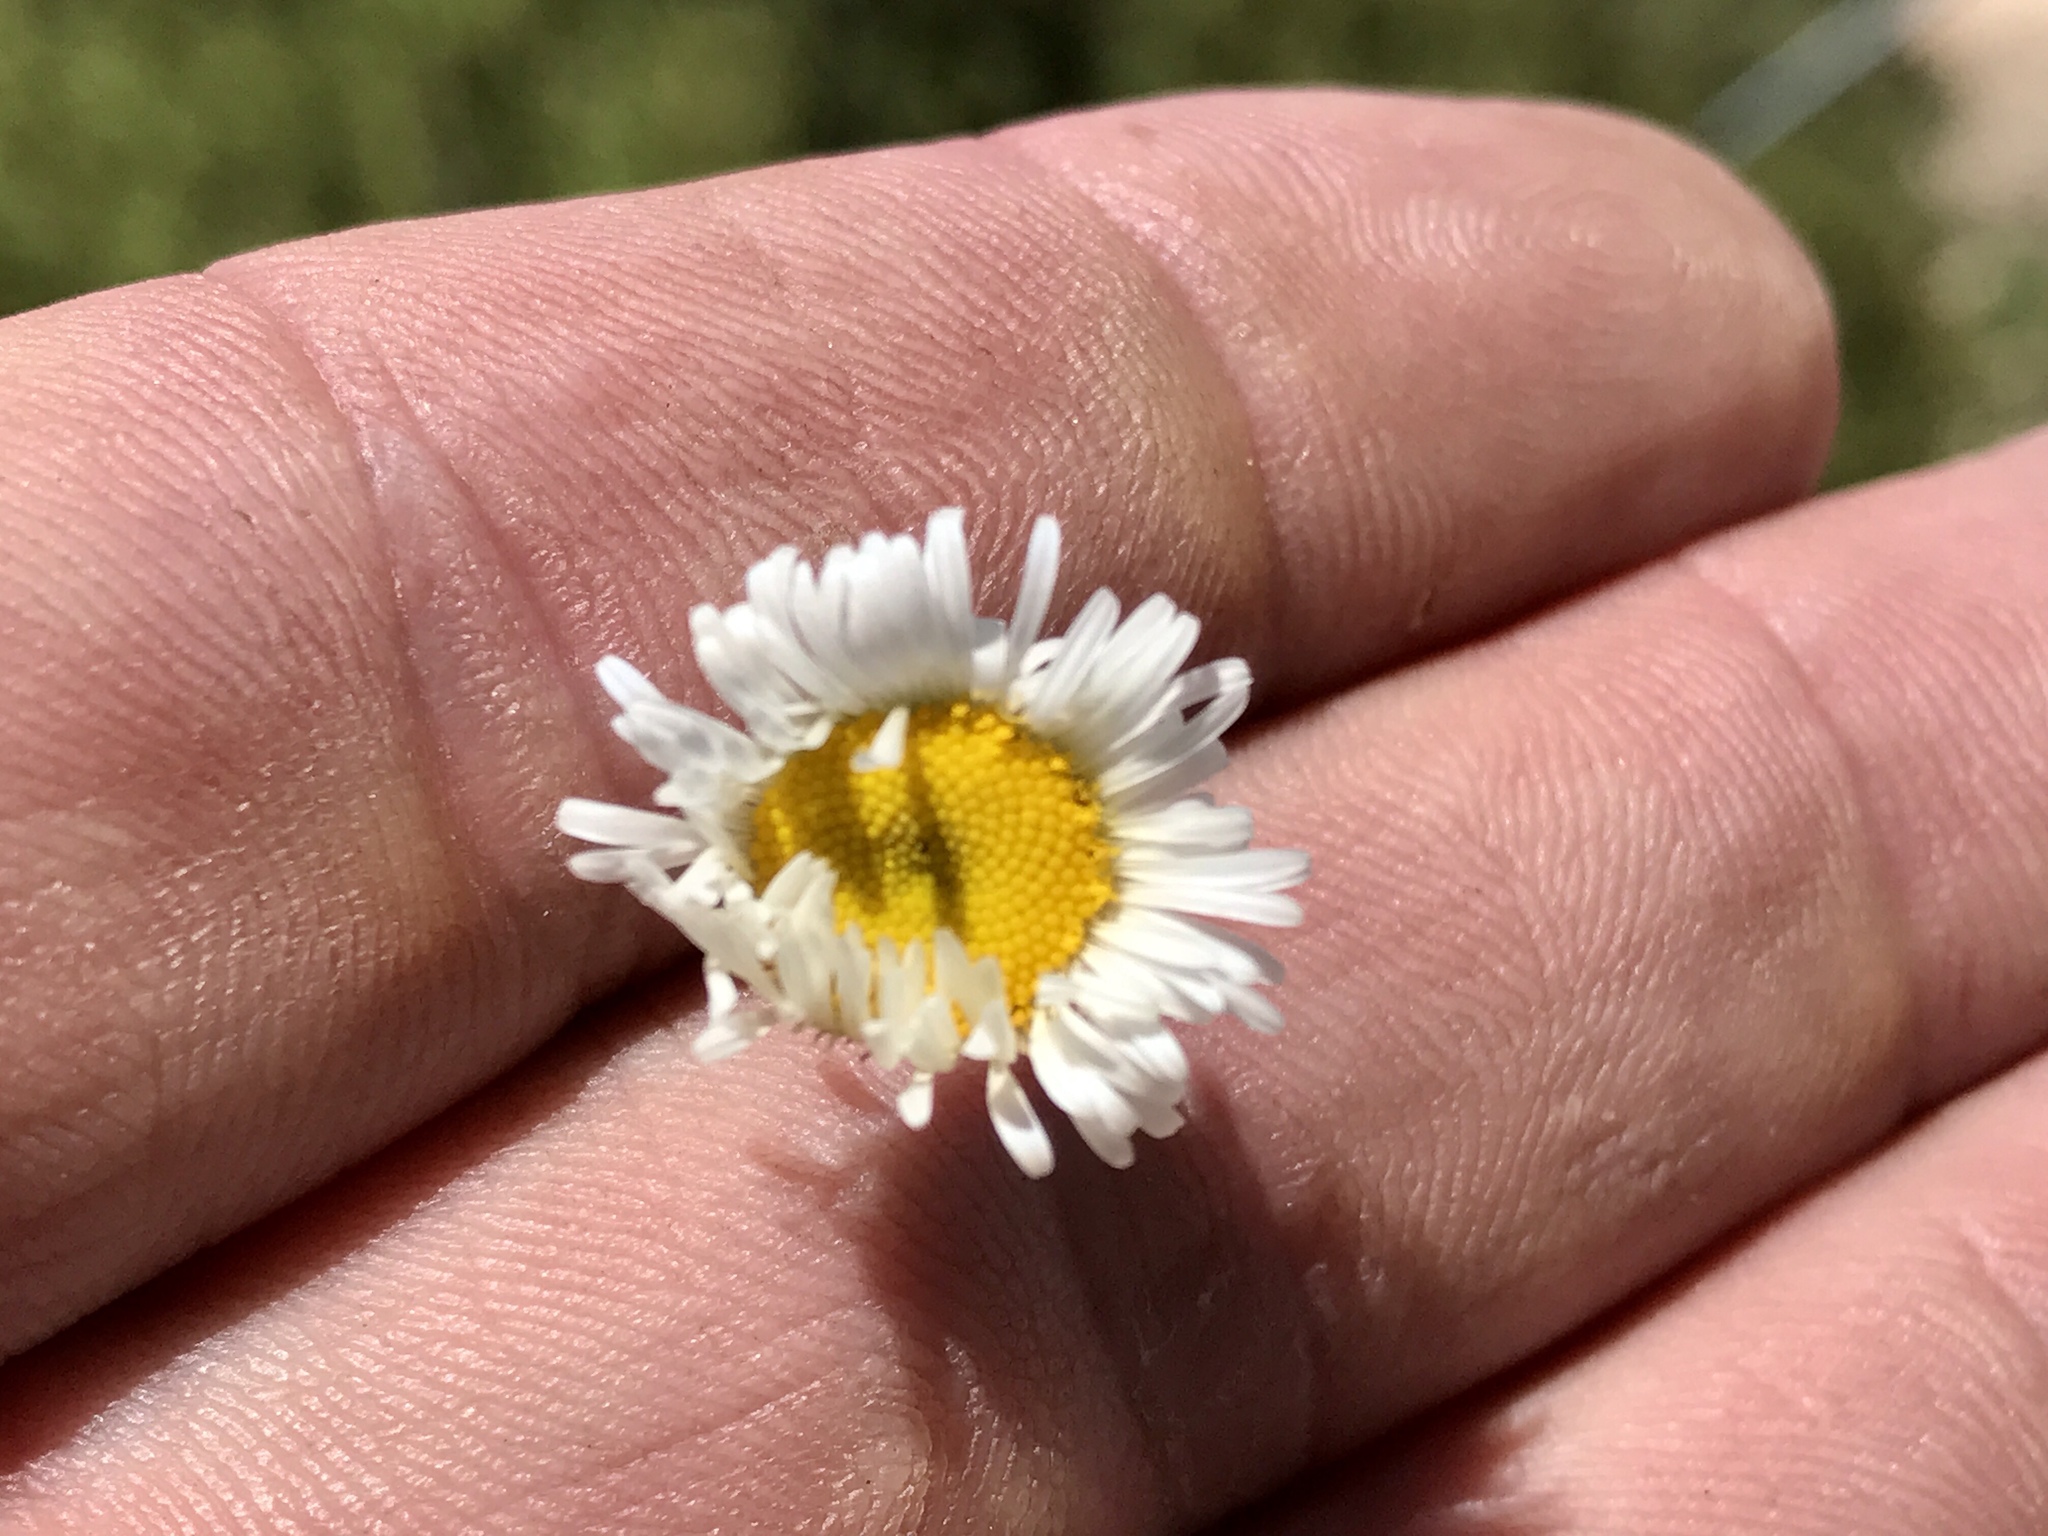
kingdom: Plantae
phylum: Tracheophyta
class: Magnoliopsida
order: Asterales
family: Asteraceae
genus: Erigeron
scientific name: Erigeron oreophilus
